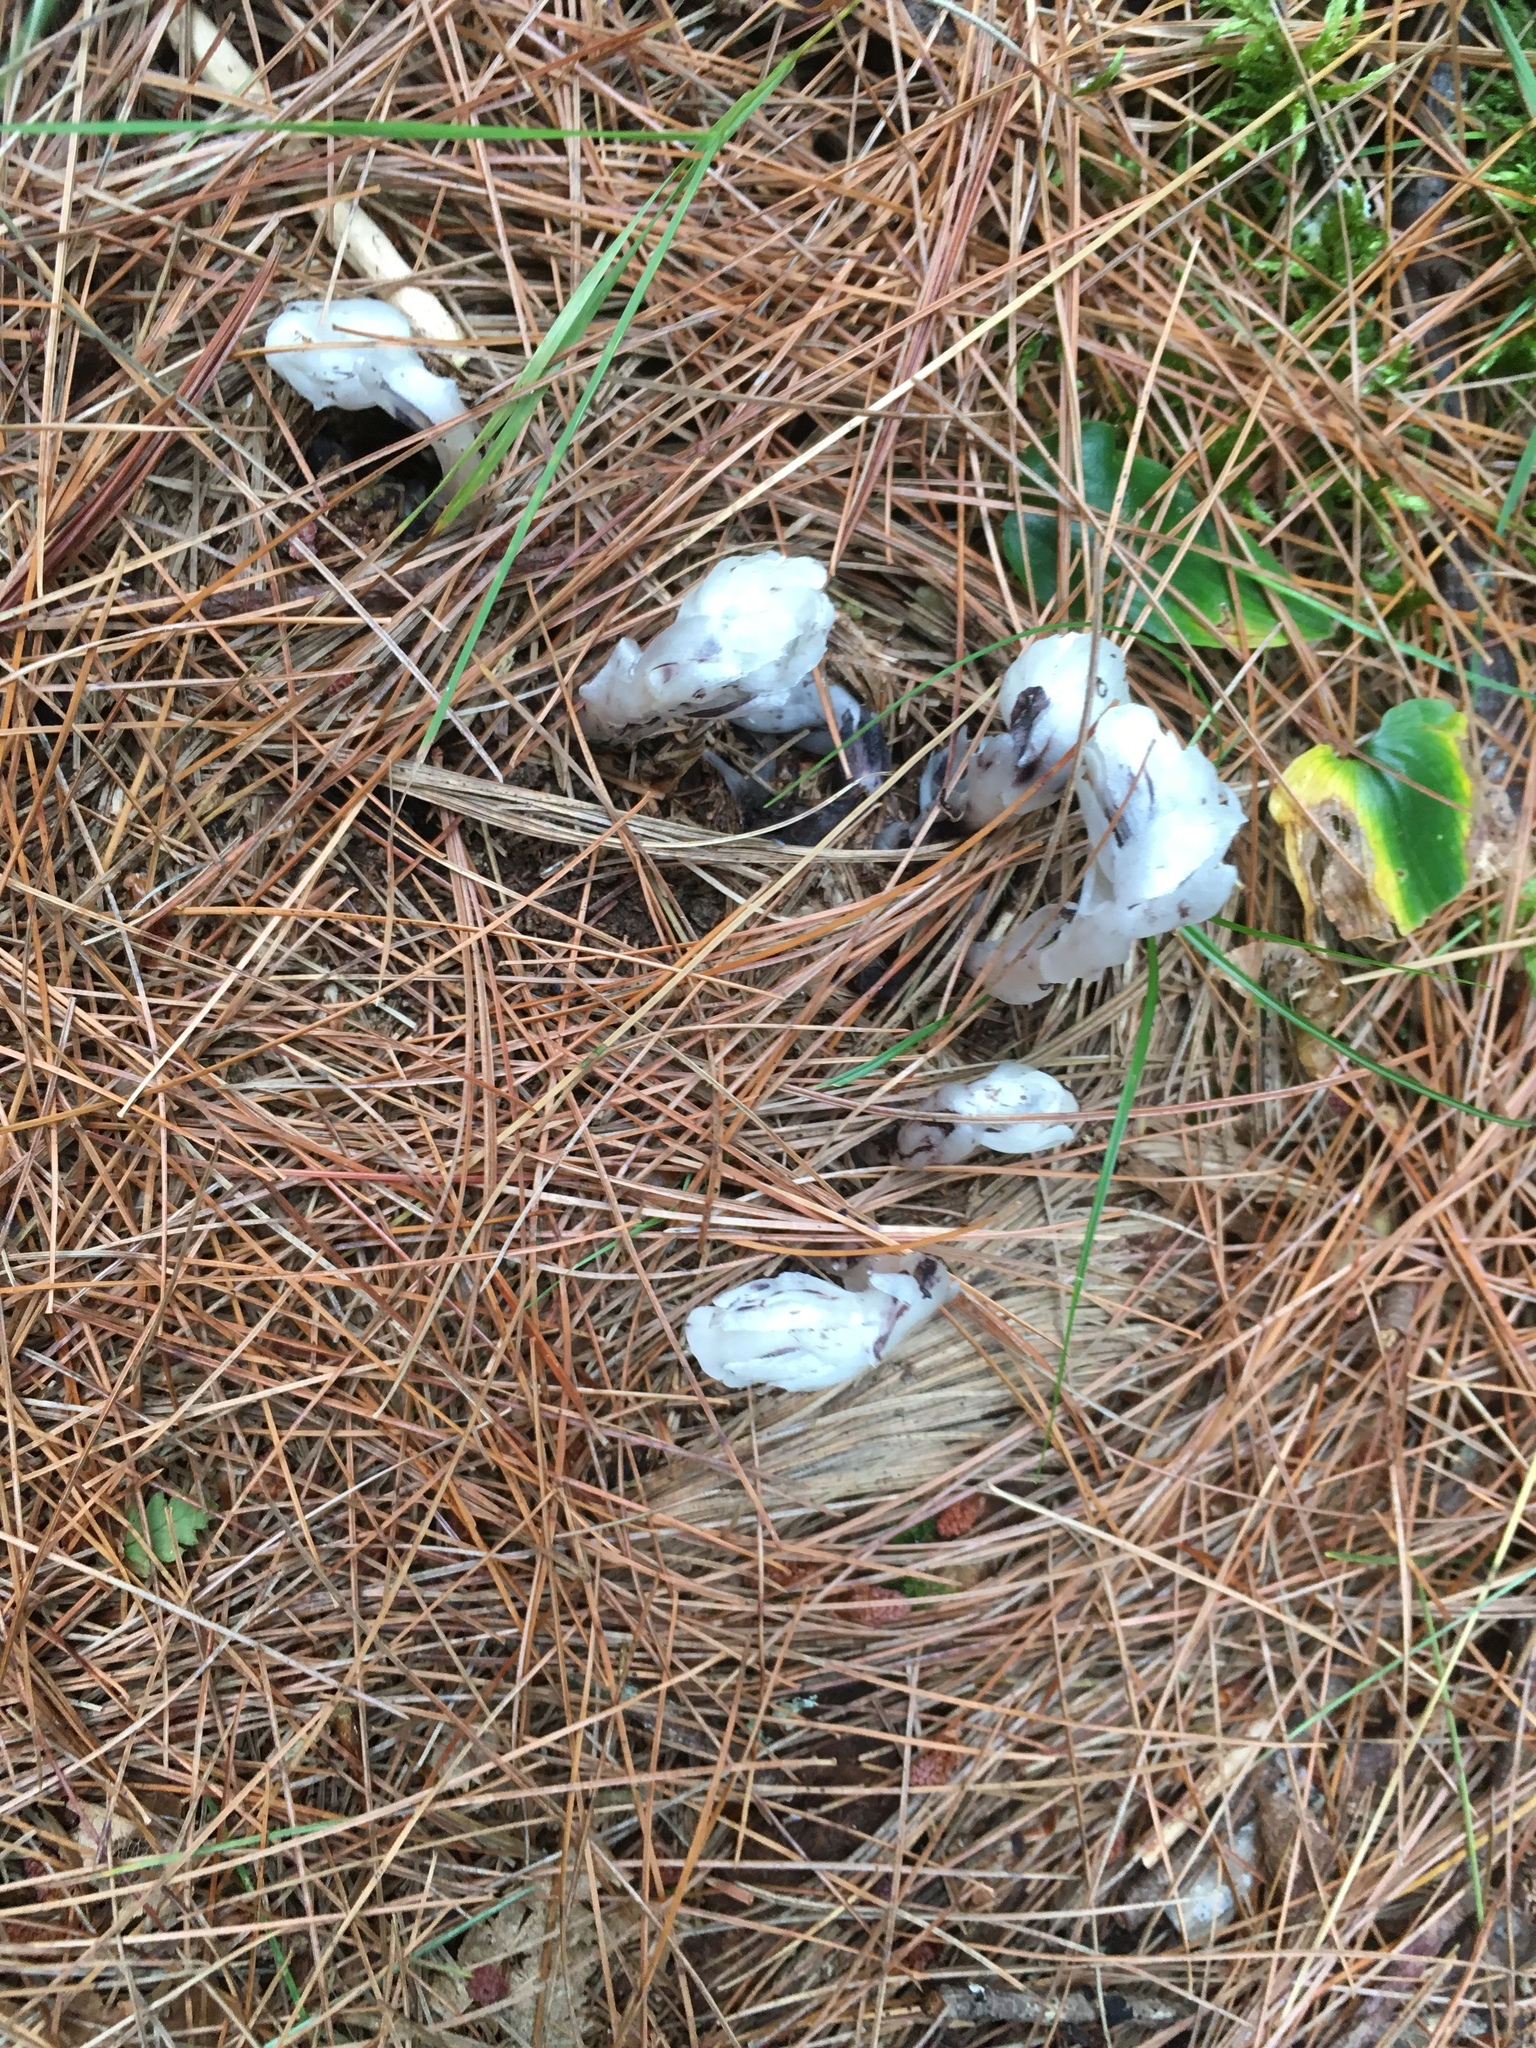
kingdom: Plantae
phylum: Tracheophyta
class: Magnoliopsida
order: Ericales
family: Ericaceae
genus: Monotropa
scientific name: Monotropa uniflora
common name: Convulsion root
